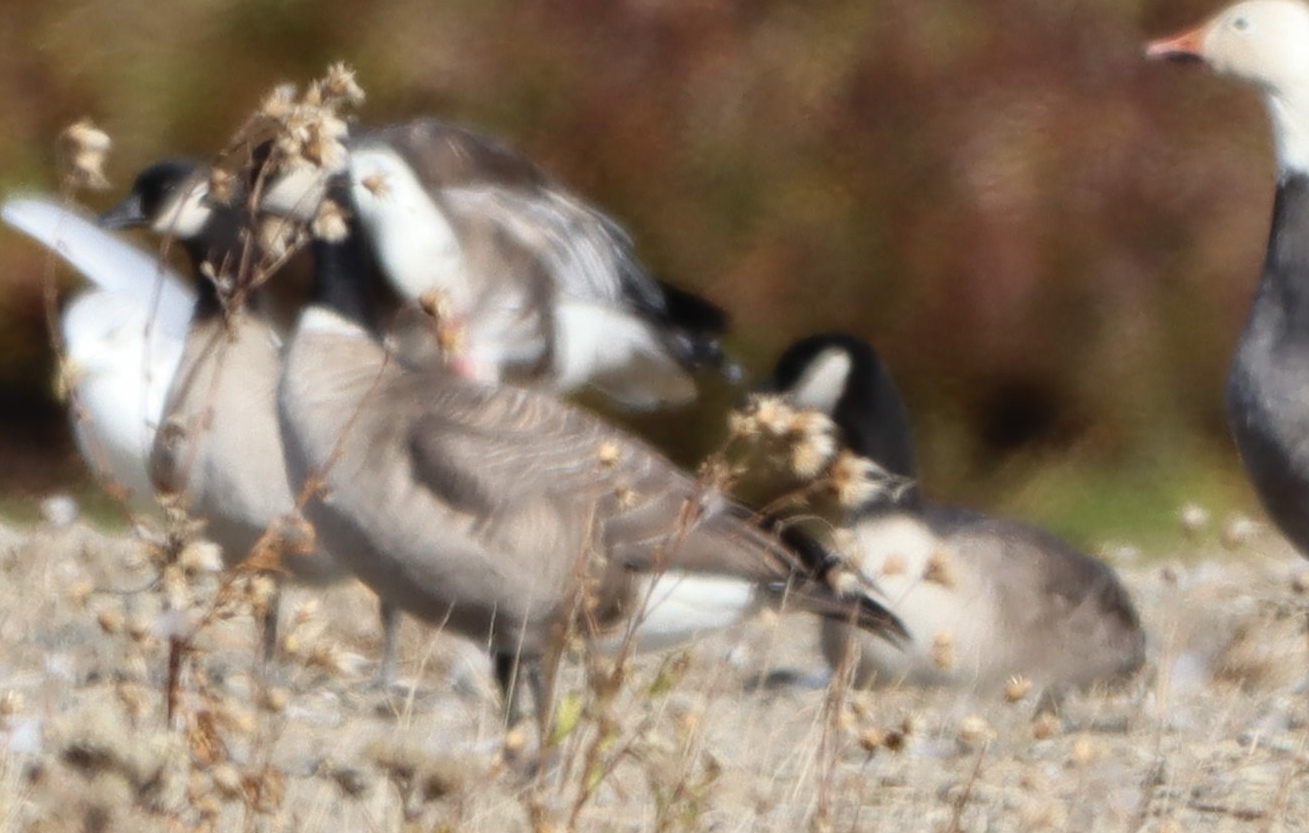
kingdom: Animalia
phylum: Chordata
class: Aves
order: Anseriformes
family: Anatidae
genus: Branta
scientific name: Branta hutchinsii
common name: Cackling goose
